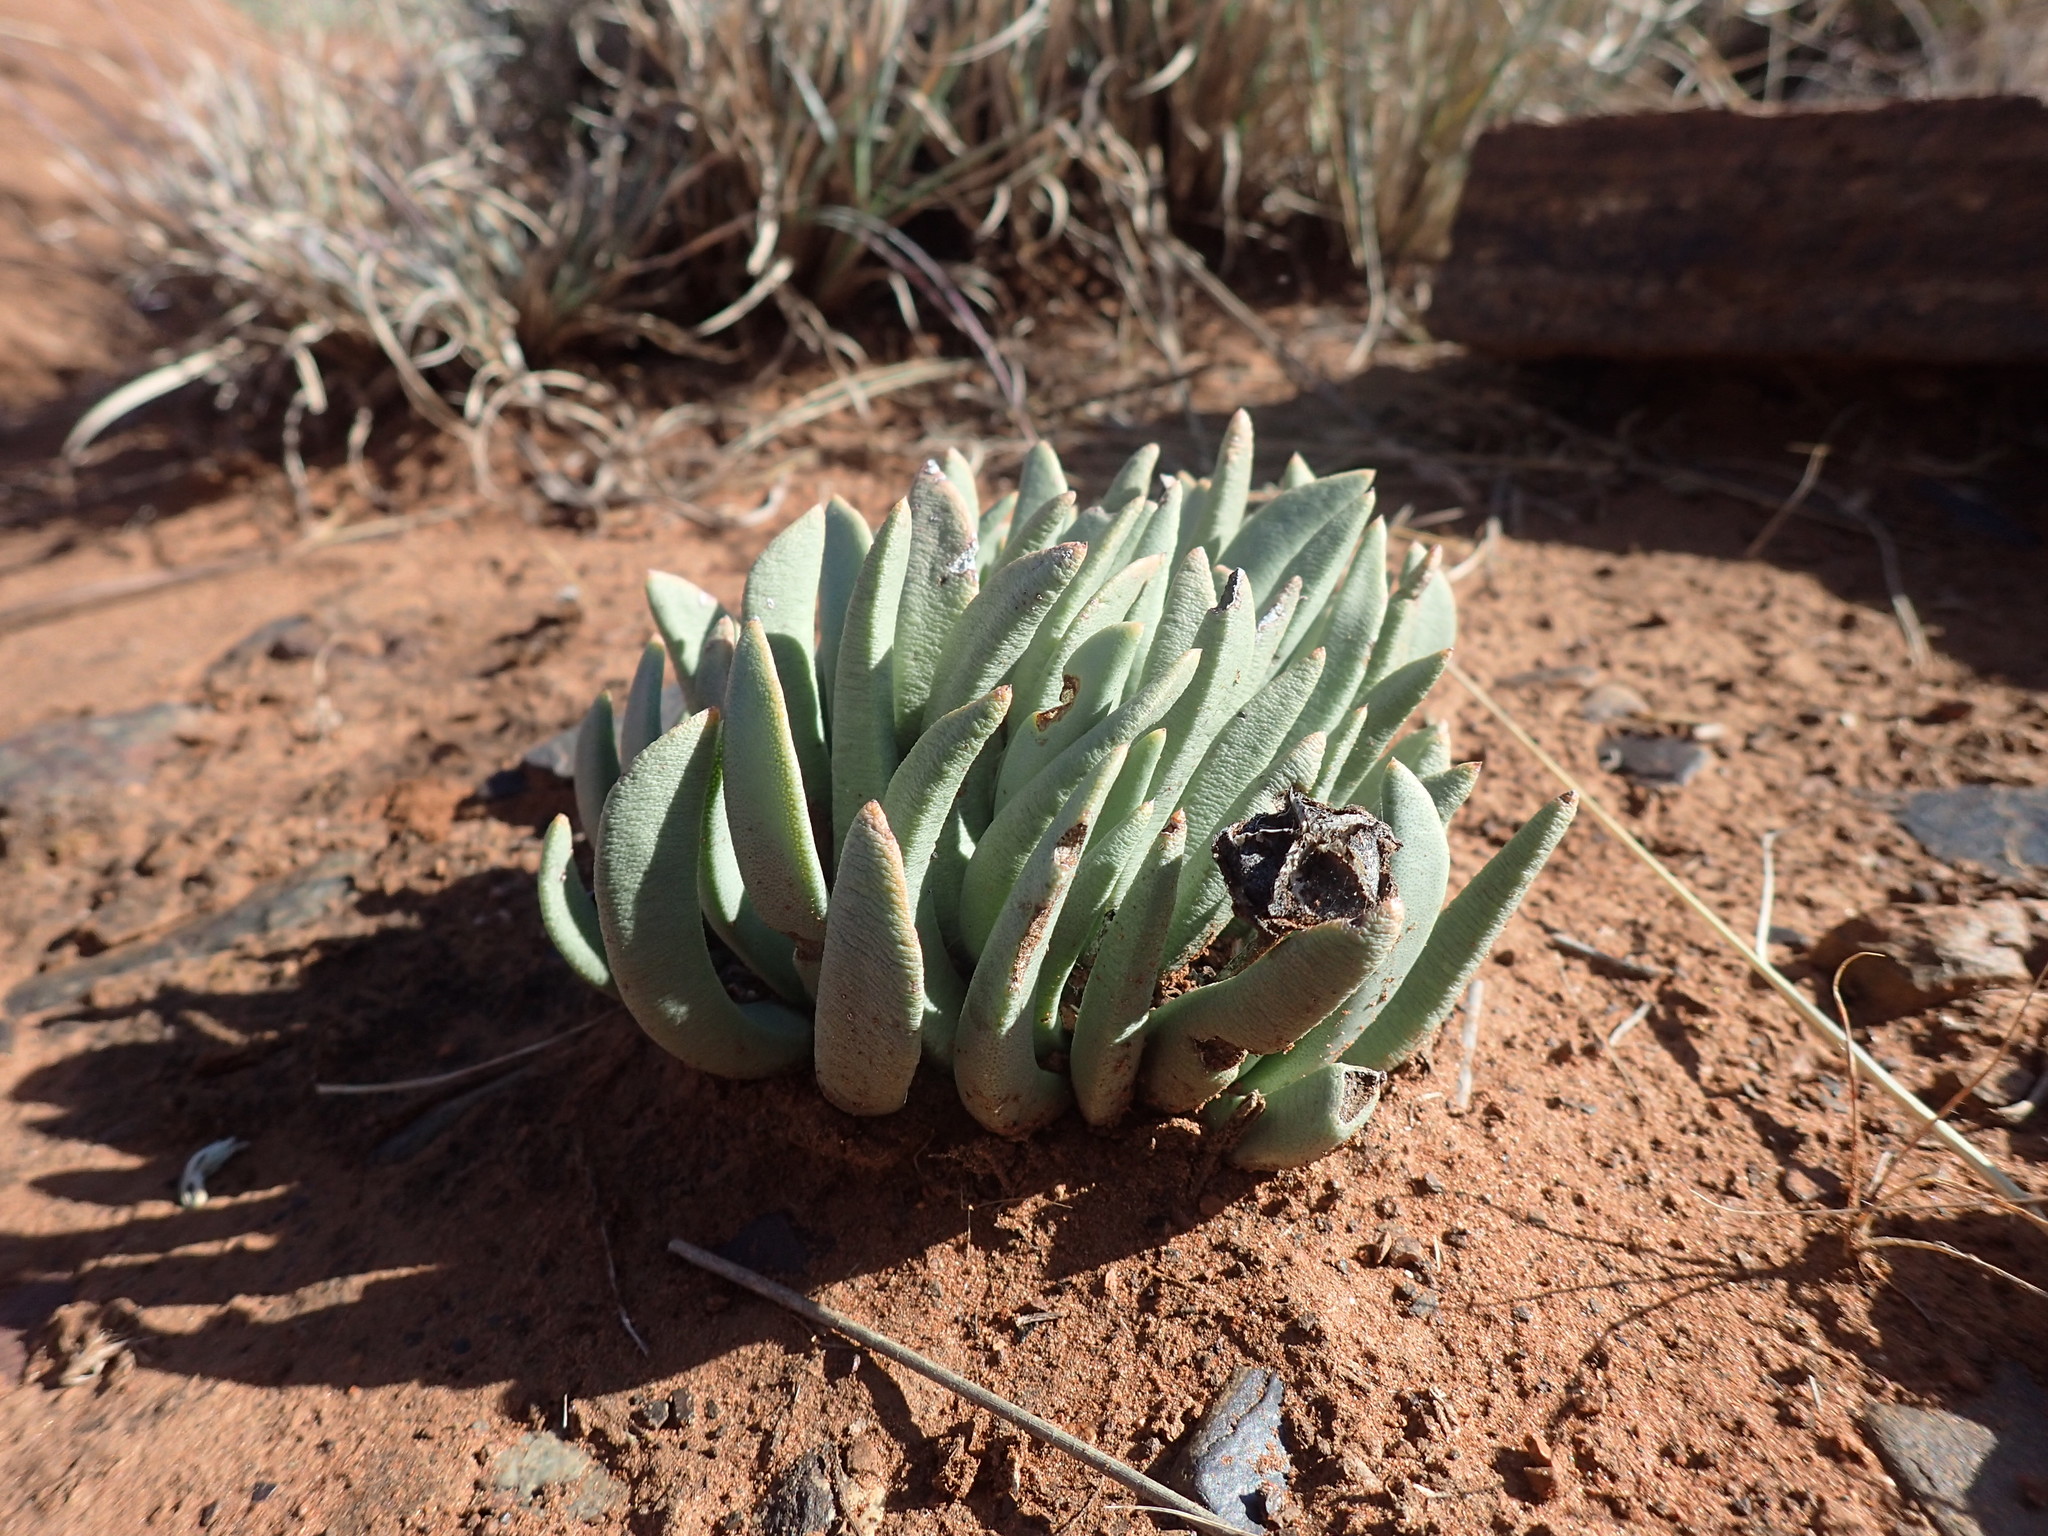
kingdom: Plantae
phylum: Tracheophyta
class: Magnoliopsida
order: Caryophyllales
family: Aizoaceae
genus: Dracophilus
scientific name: Dracophilus Hereroa wilmaniae
